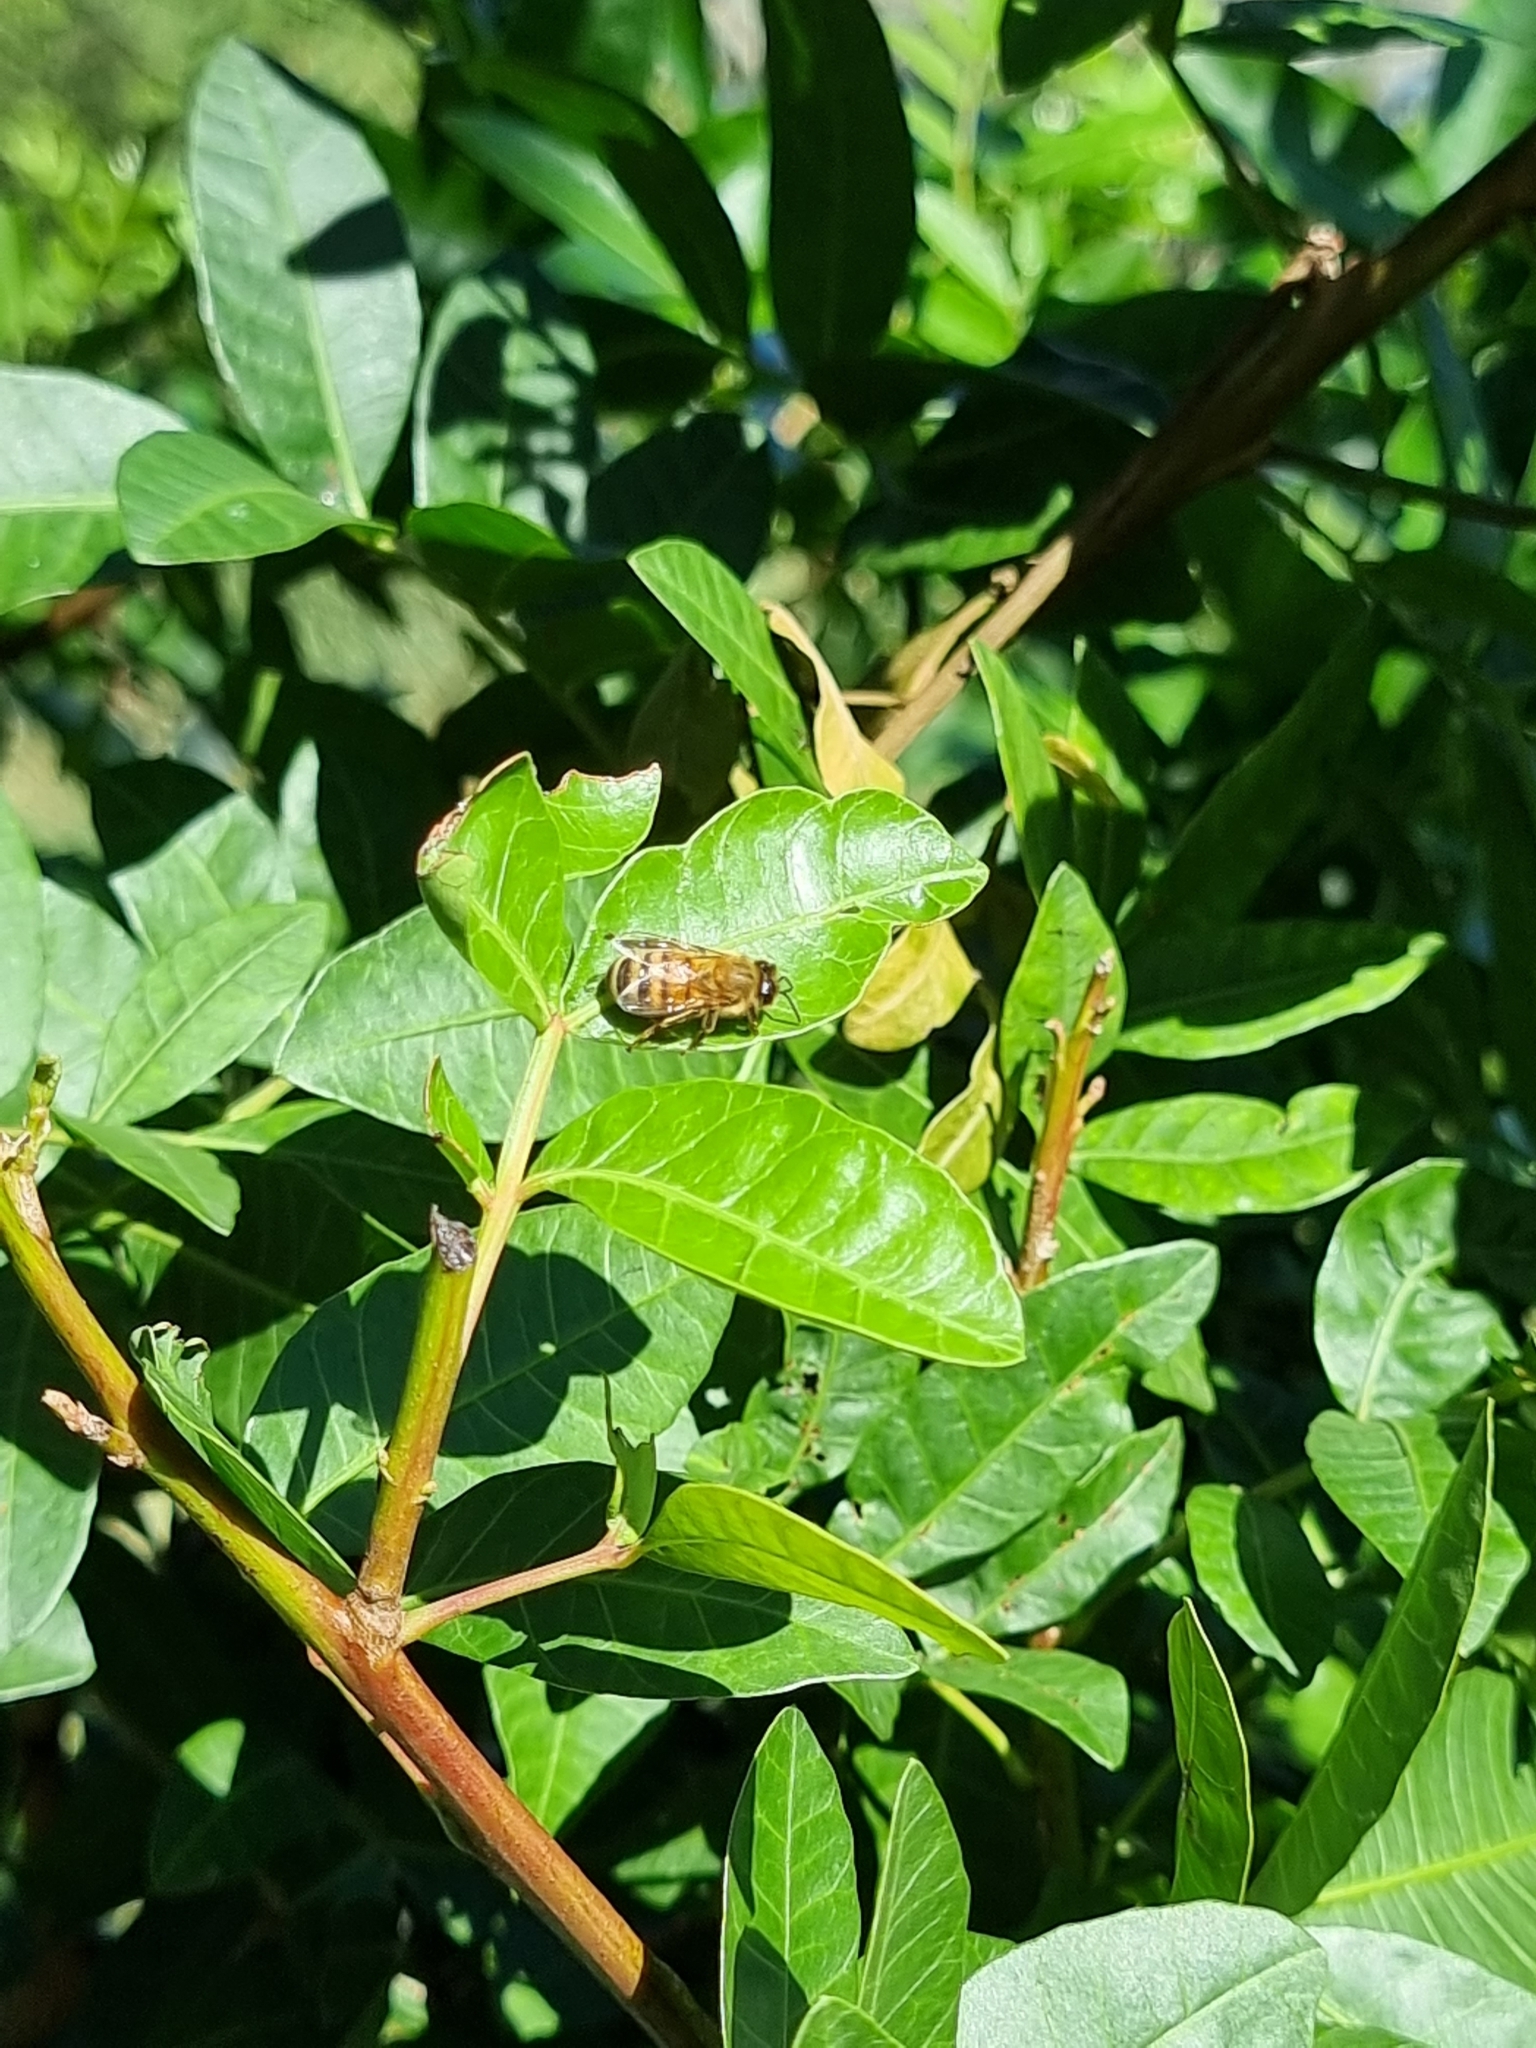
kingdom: Animalia
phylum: Arthropoda
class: Insecta
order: Hymenoptera
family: Apidae
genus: Apis
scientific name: Apis mellifera
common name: Honey bee
